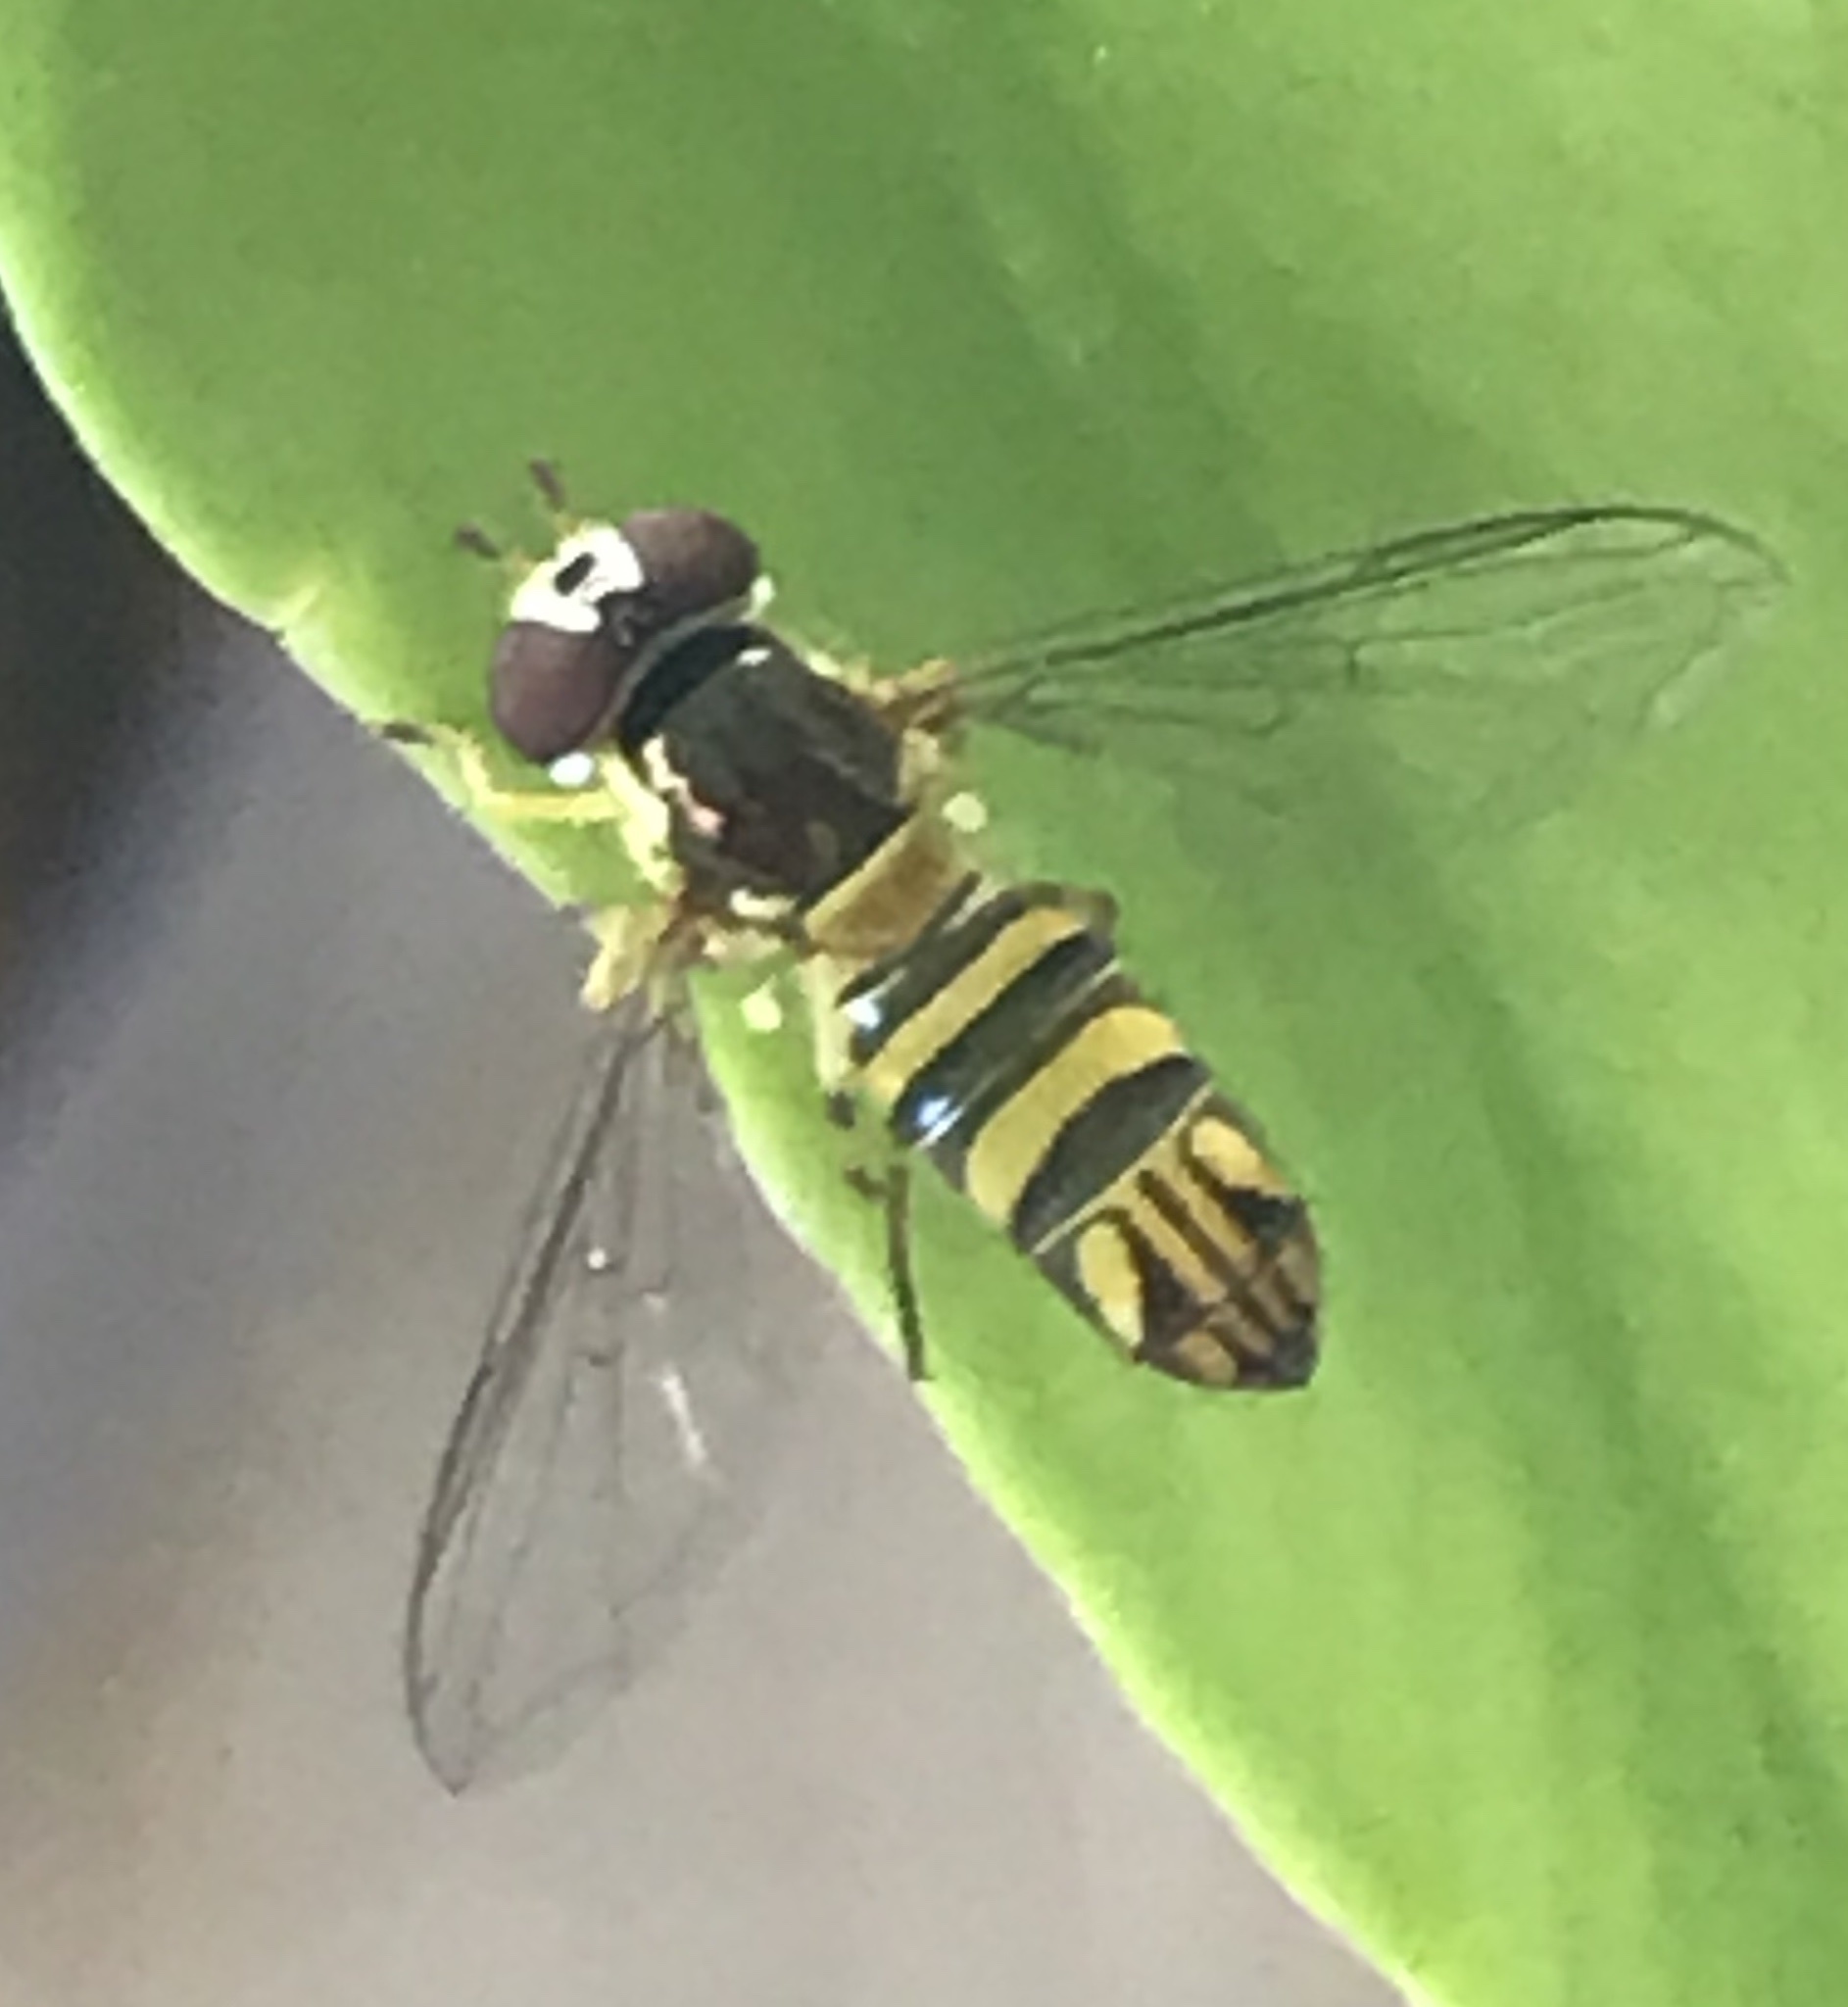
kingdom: Animalia
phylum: Arthropoda
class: Insecta
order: Diptera
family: Syrphidae
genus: Allograpta
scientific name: Allograpta obliqua
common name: Common oblique syrphid
